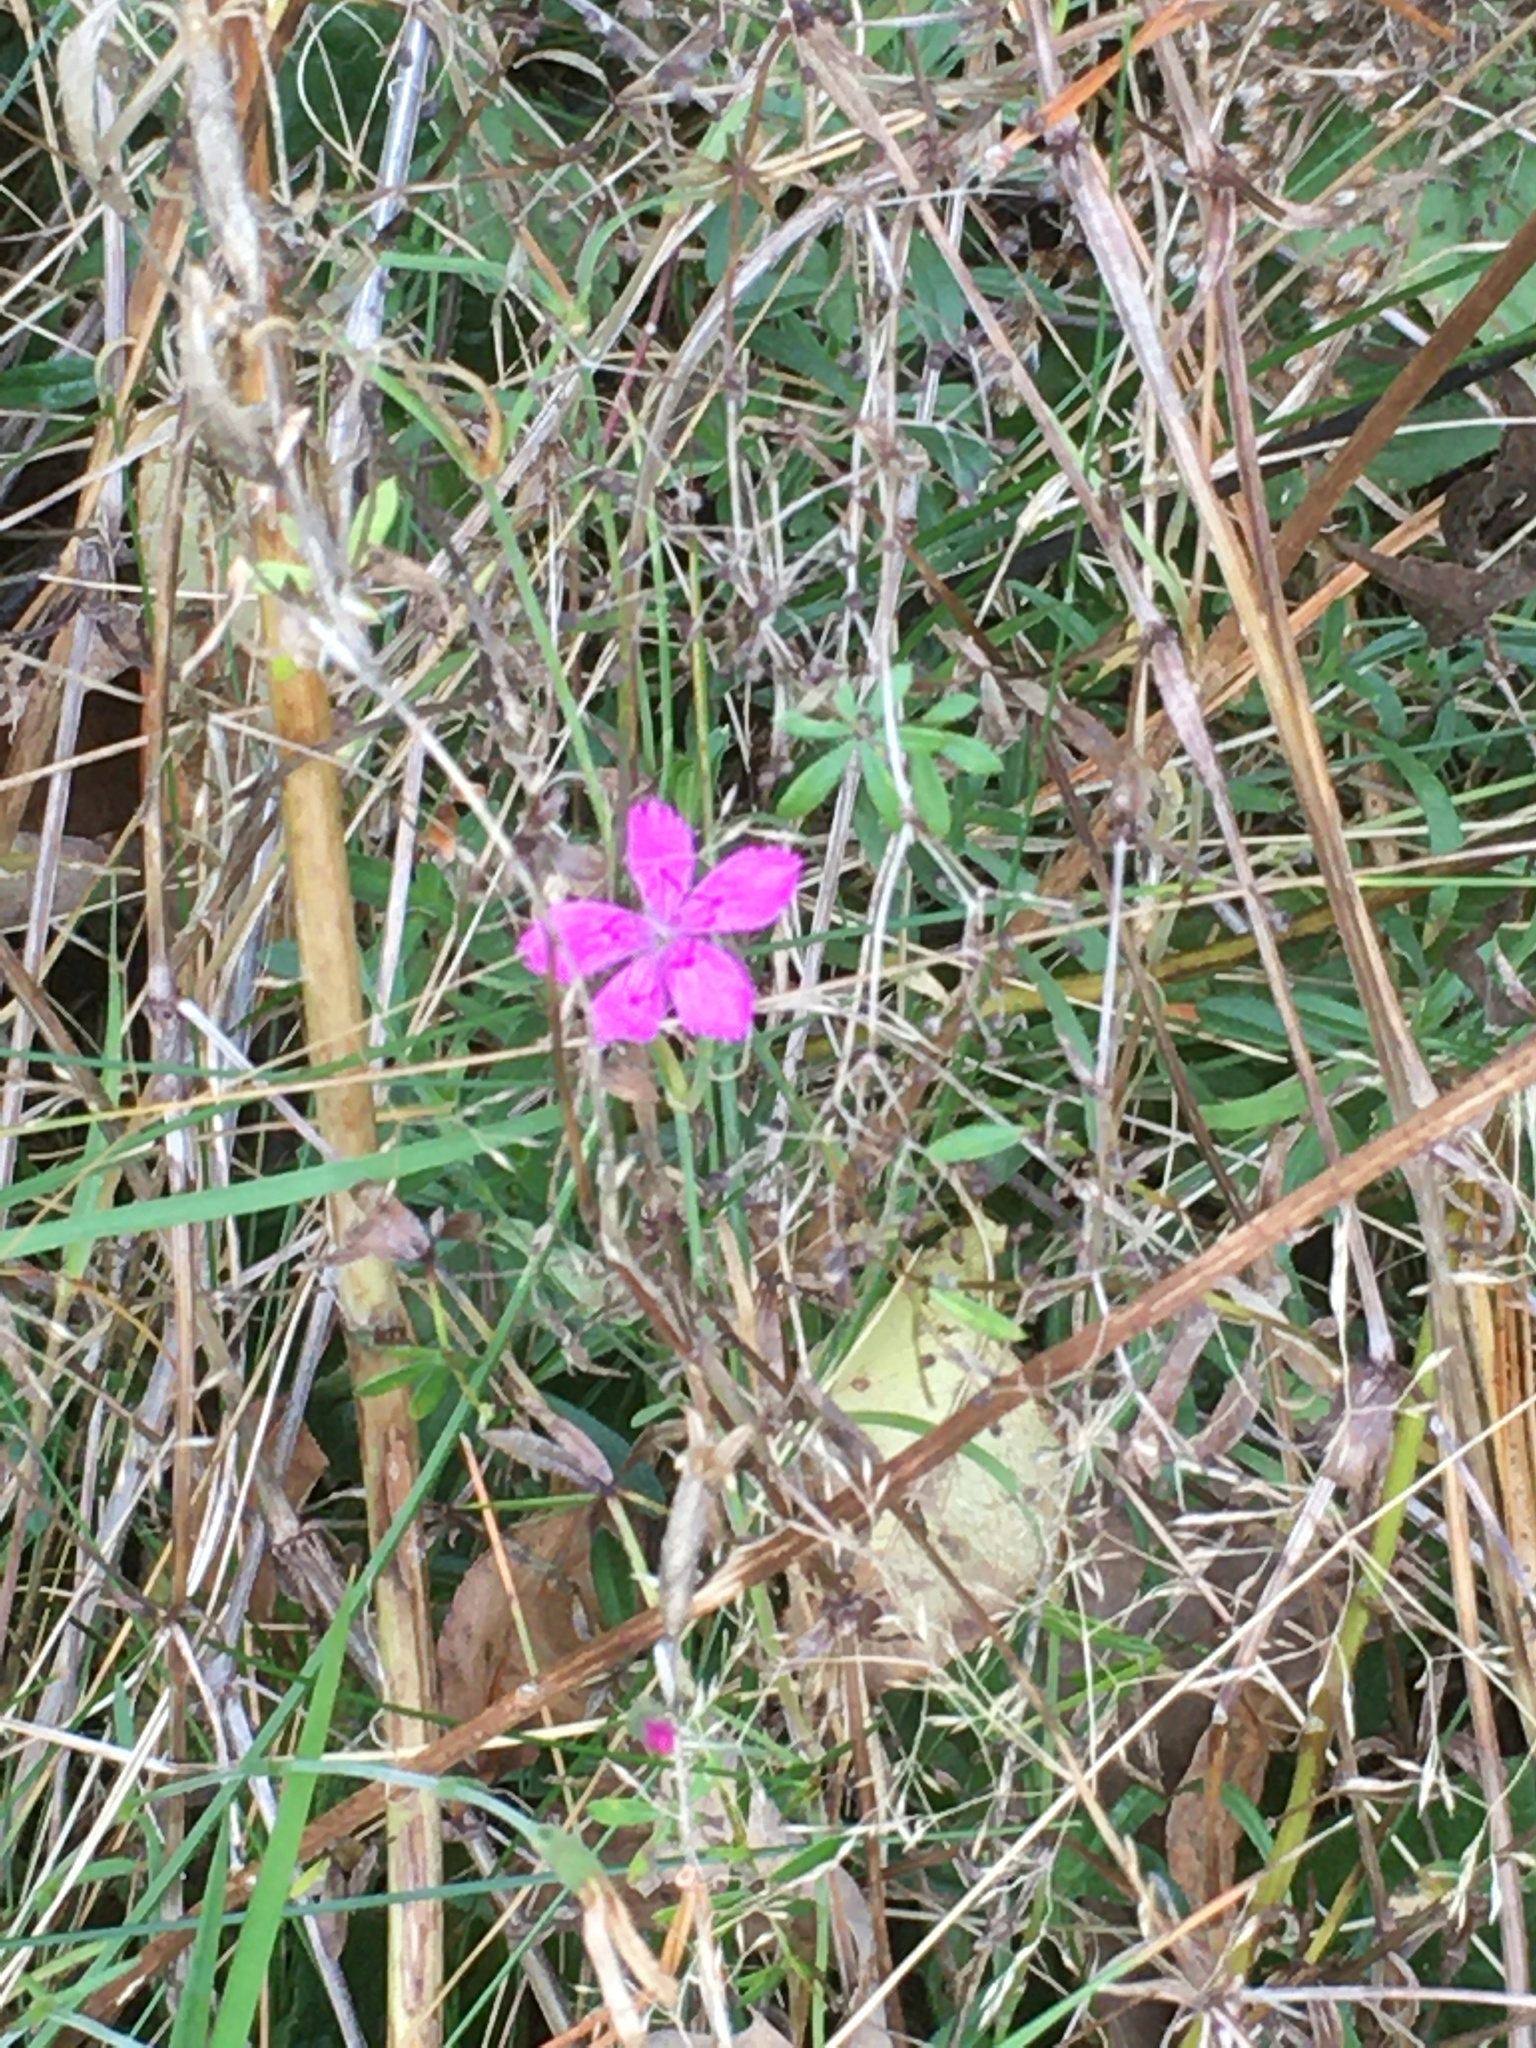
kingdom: Plantae
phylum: Tracheophyta
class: Magnoliopsida
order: Caryophyllales
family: Caryophyllaceae
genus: Dianthus
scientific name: Dianthus armeria
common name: Deptford pink
